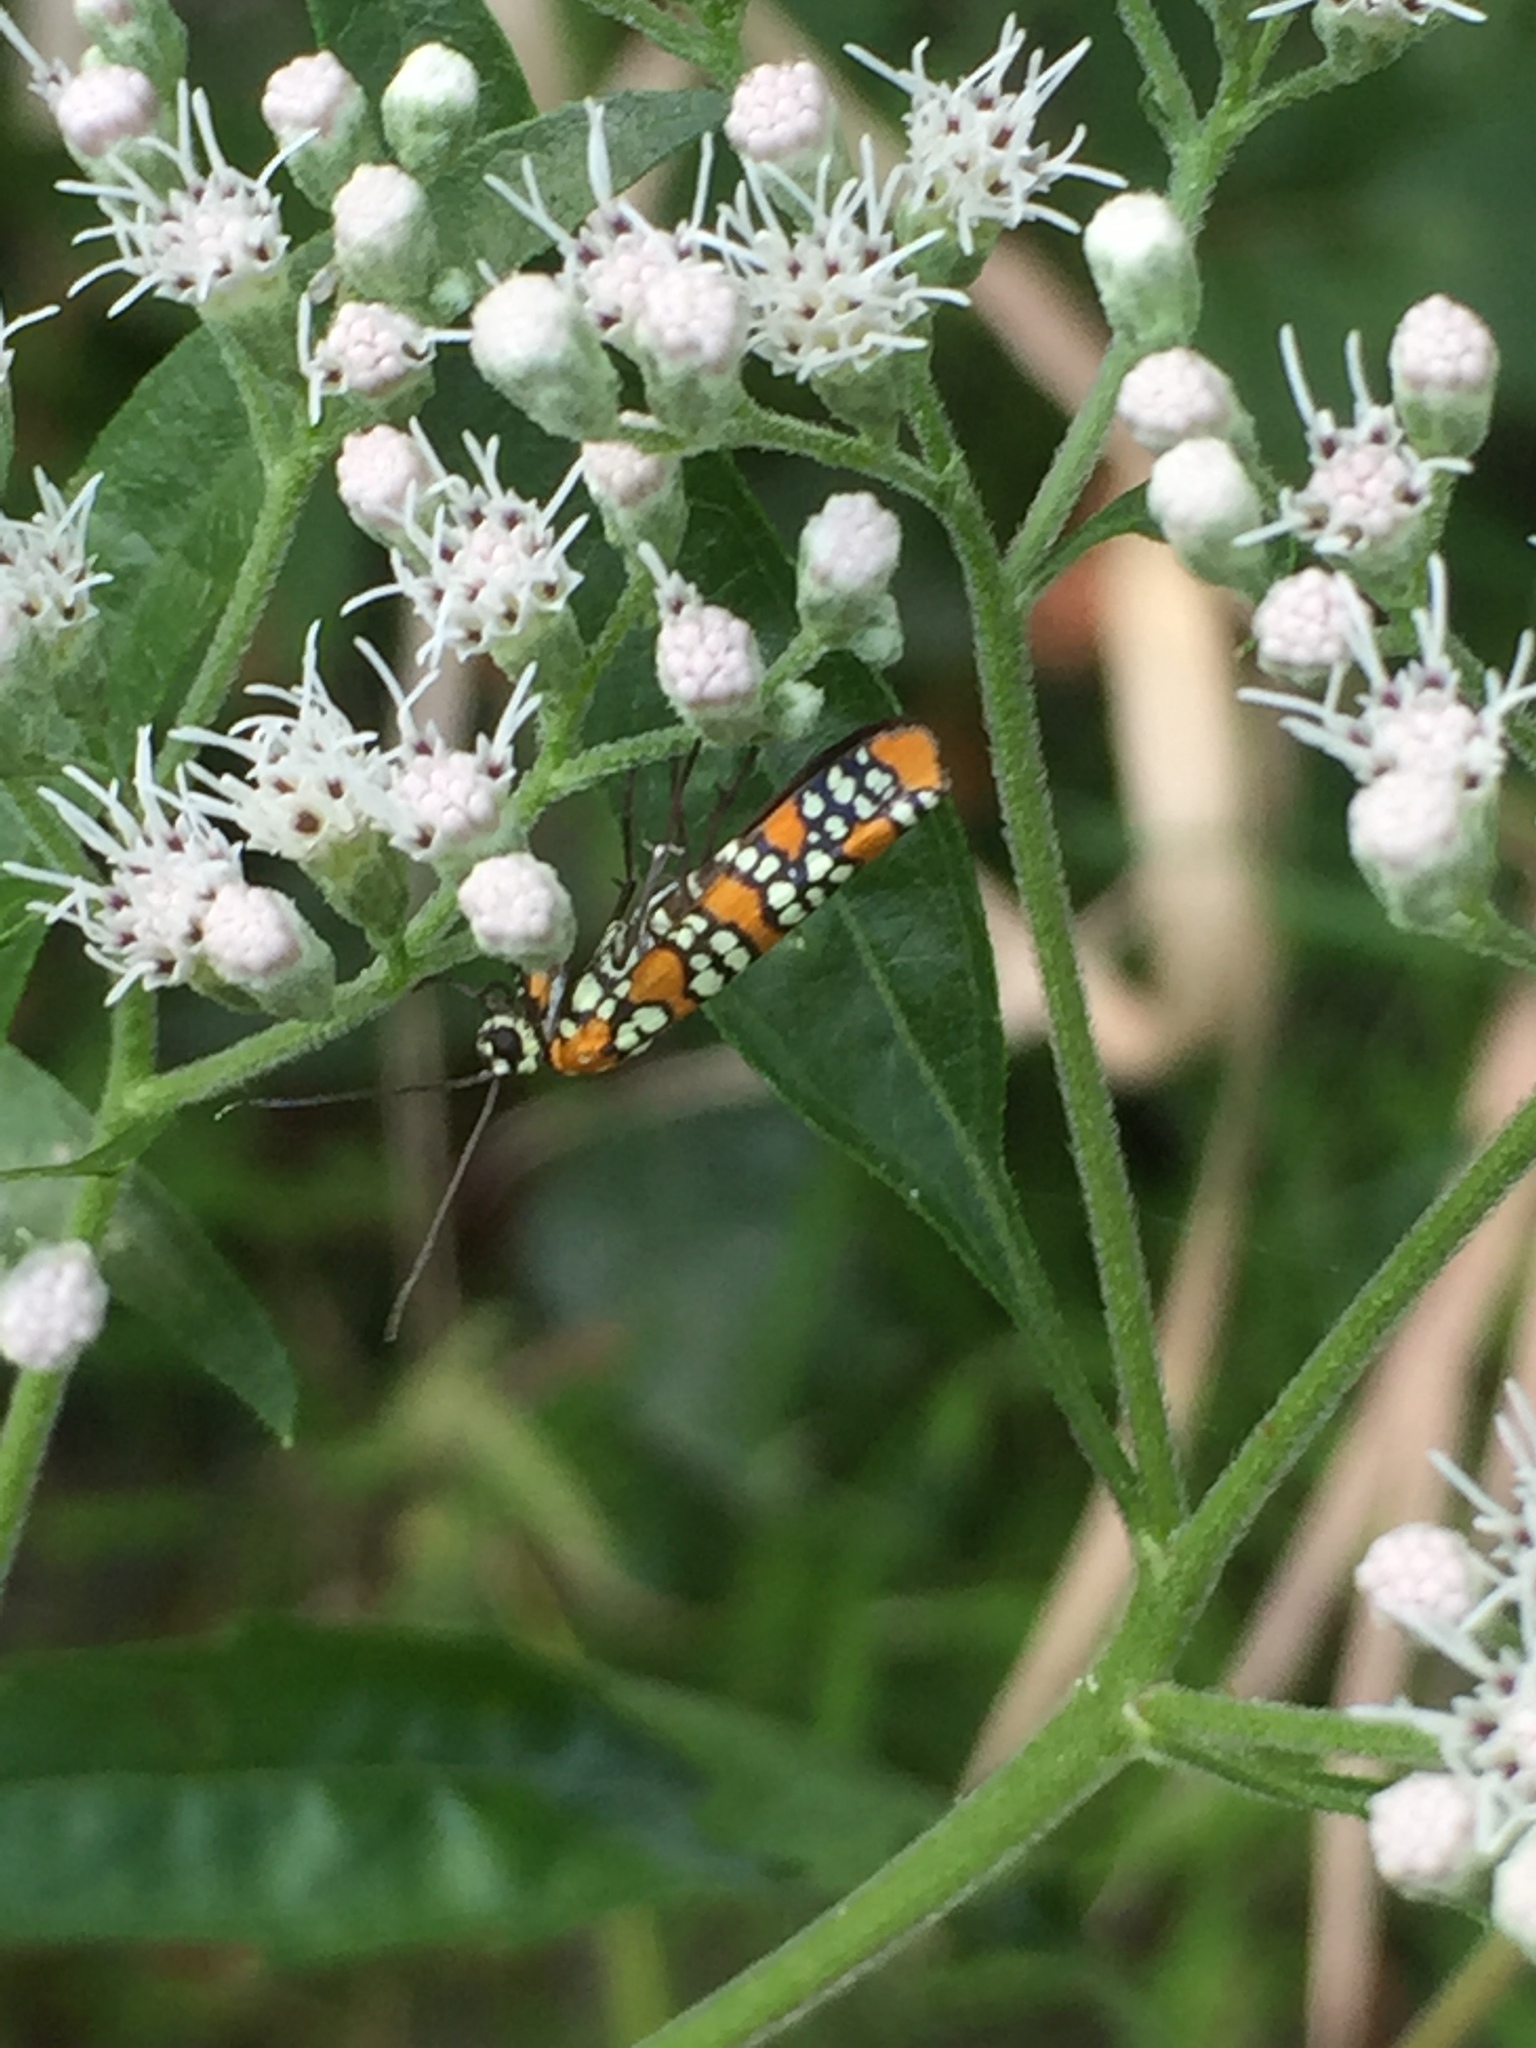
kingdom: Animalia
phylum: Arthropoda
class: Insecta
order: Lepidoptera
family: Attevidae
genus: Atteva
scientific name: Atteva punctella
